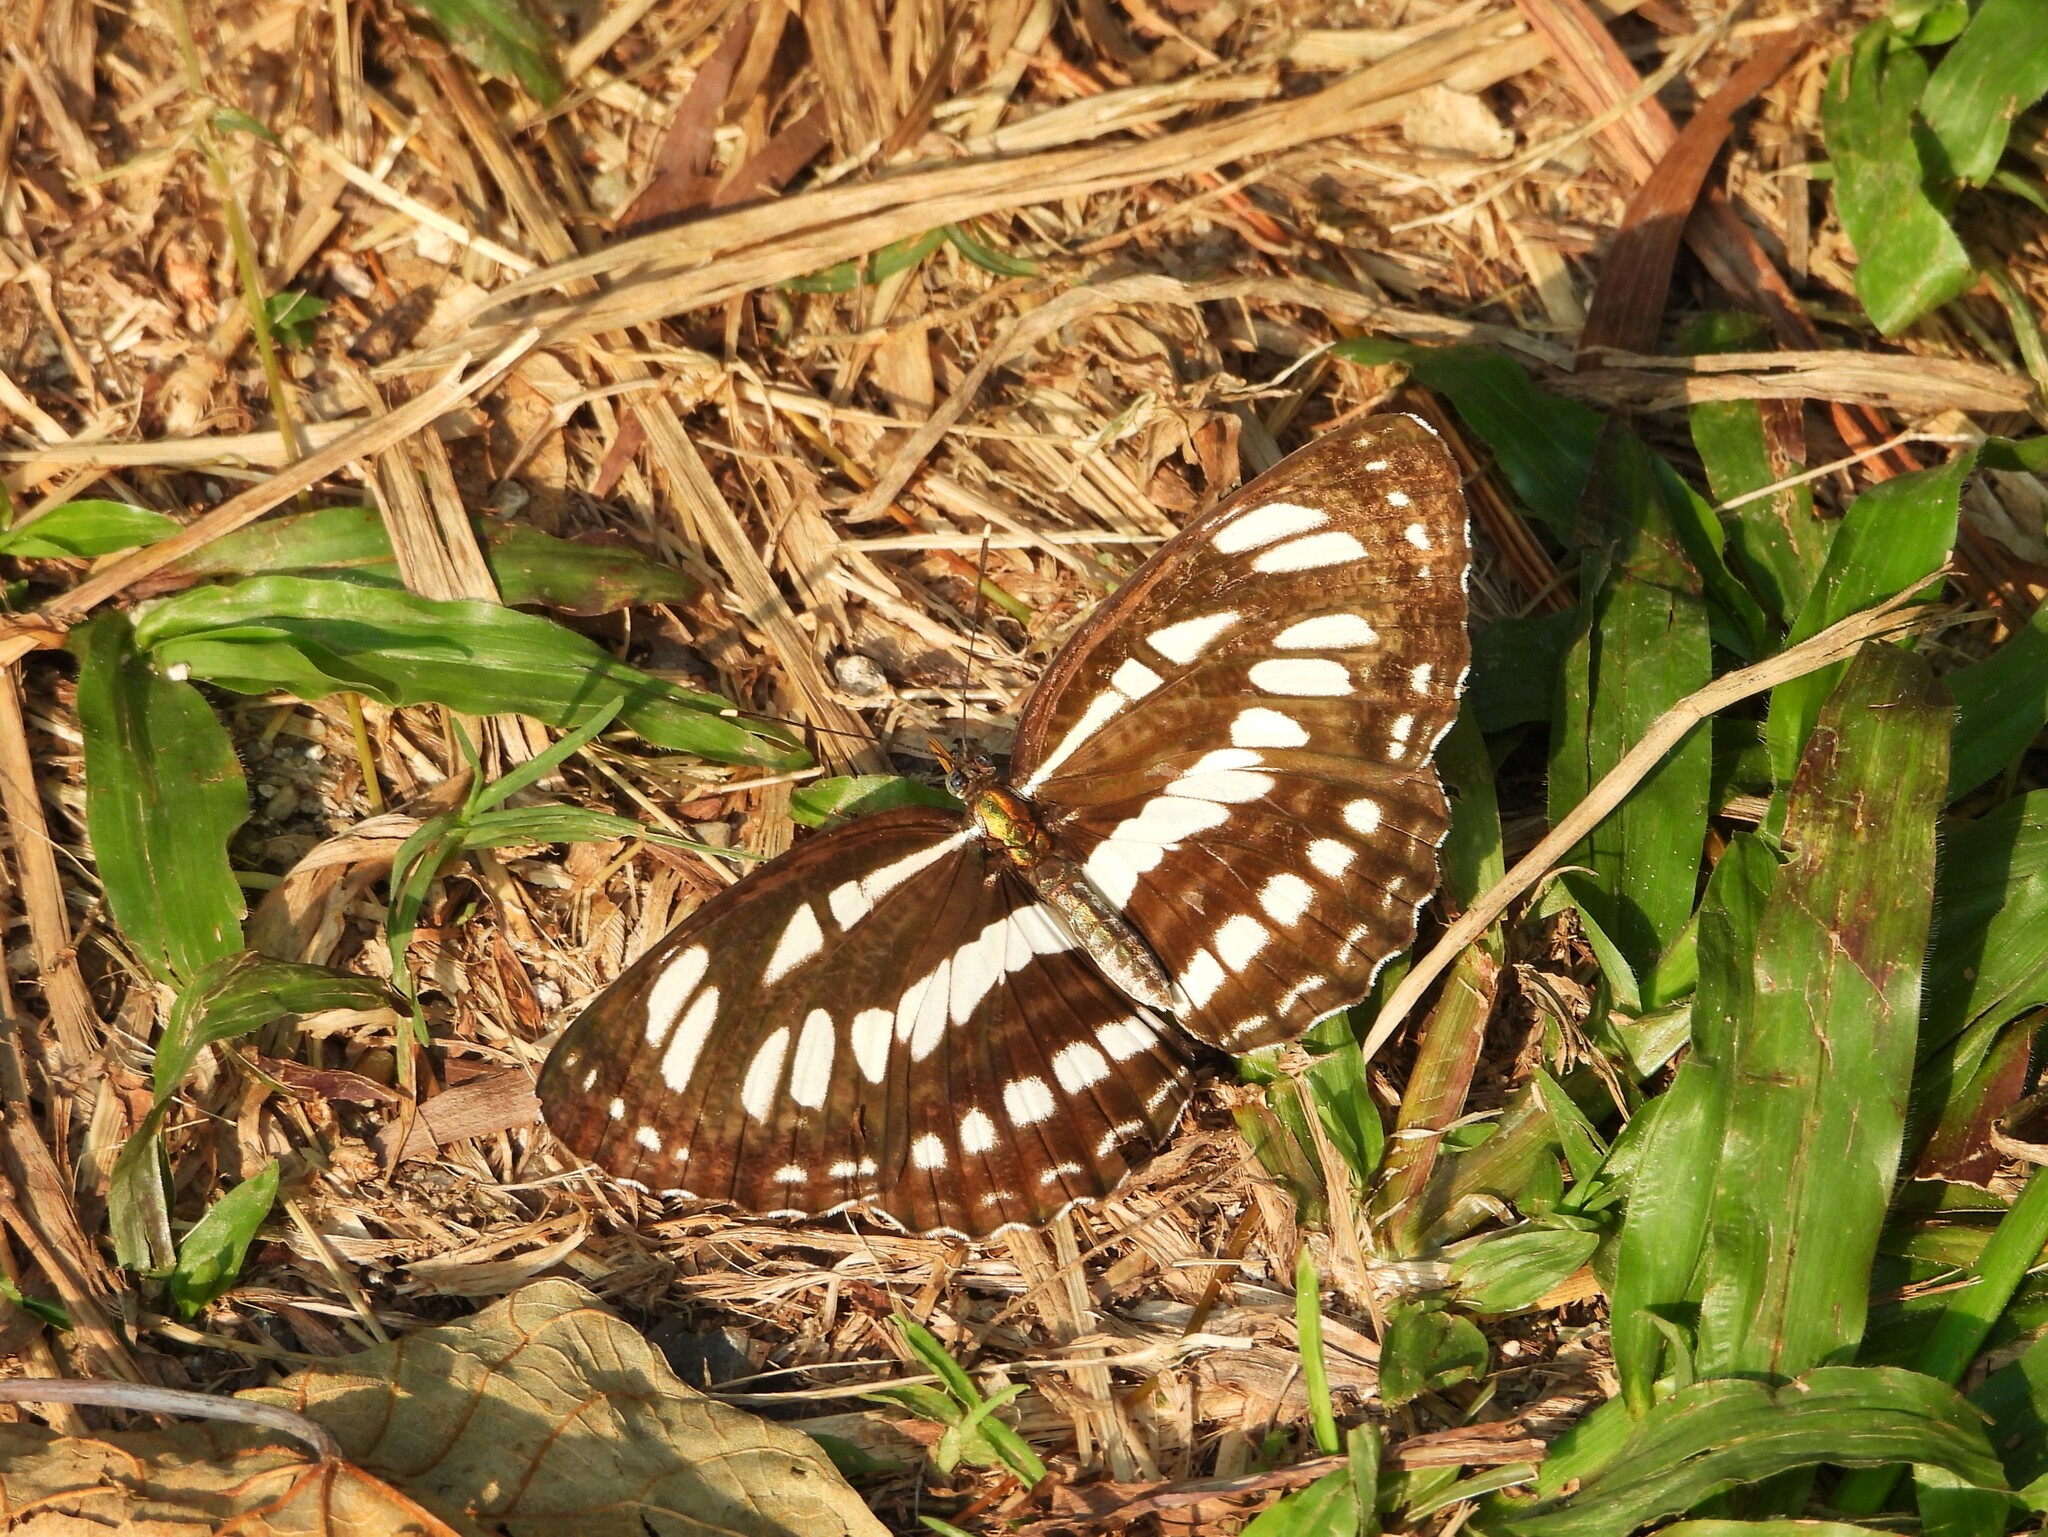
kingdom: Animalia
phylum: Arthropoda
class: Insecta
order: Lepidoptera
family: Nymphalidae
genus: Neptis
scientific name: Neptis hylas
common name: Common sailer
